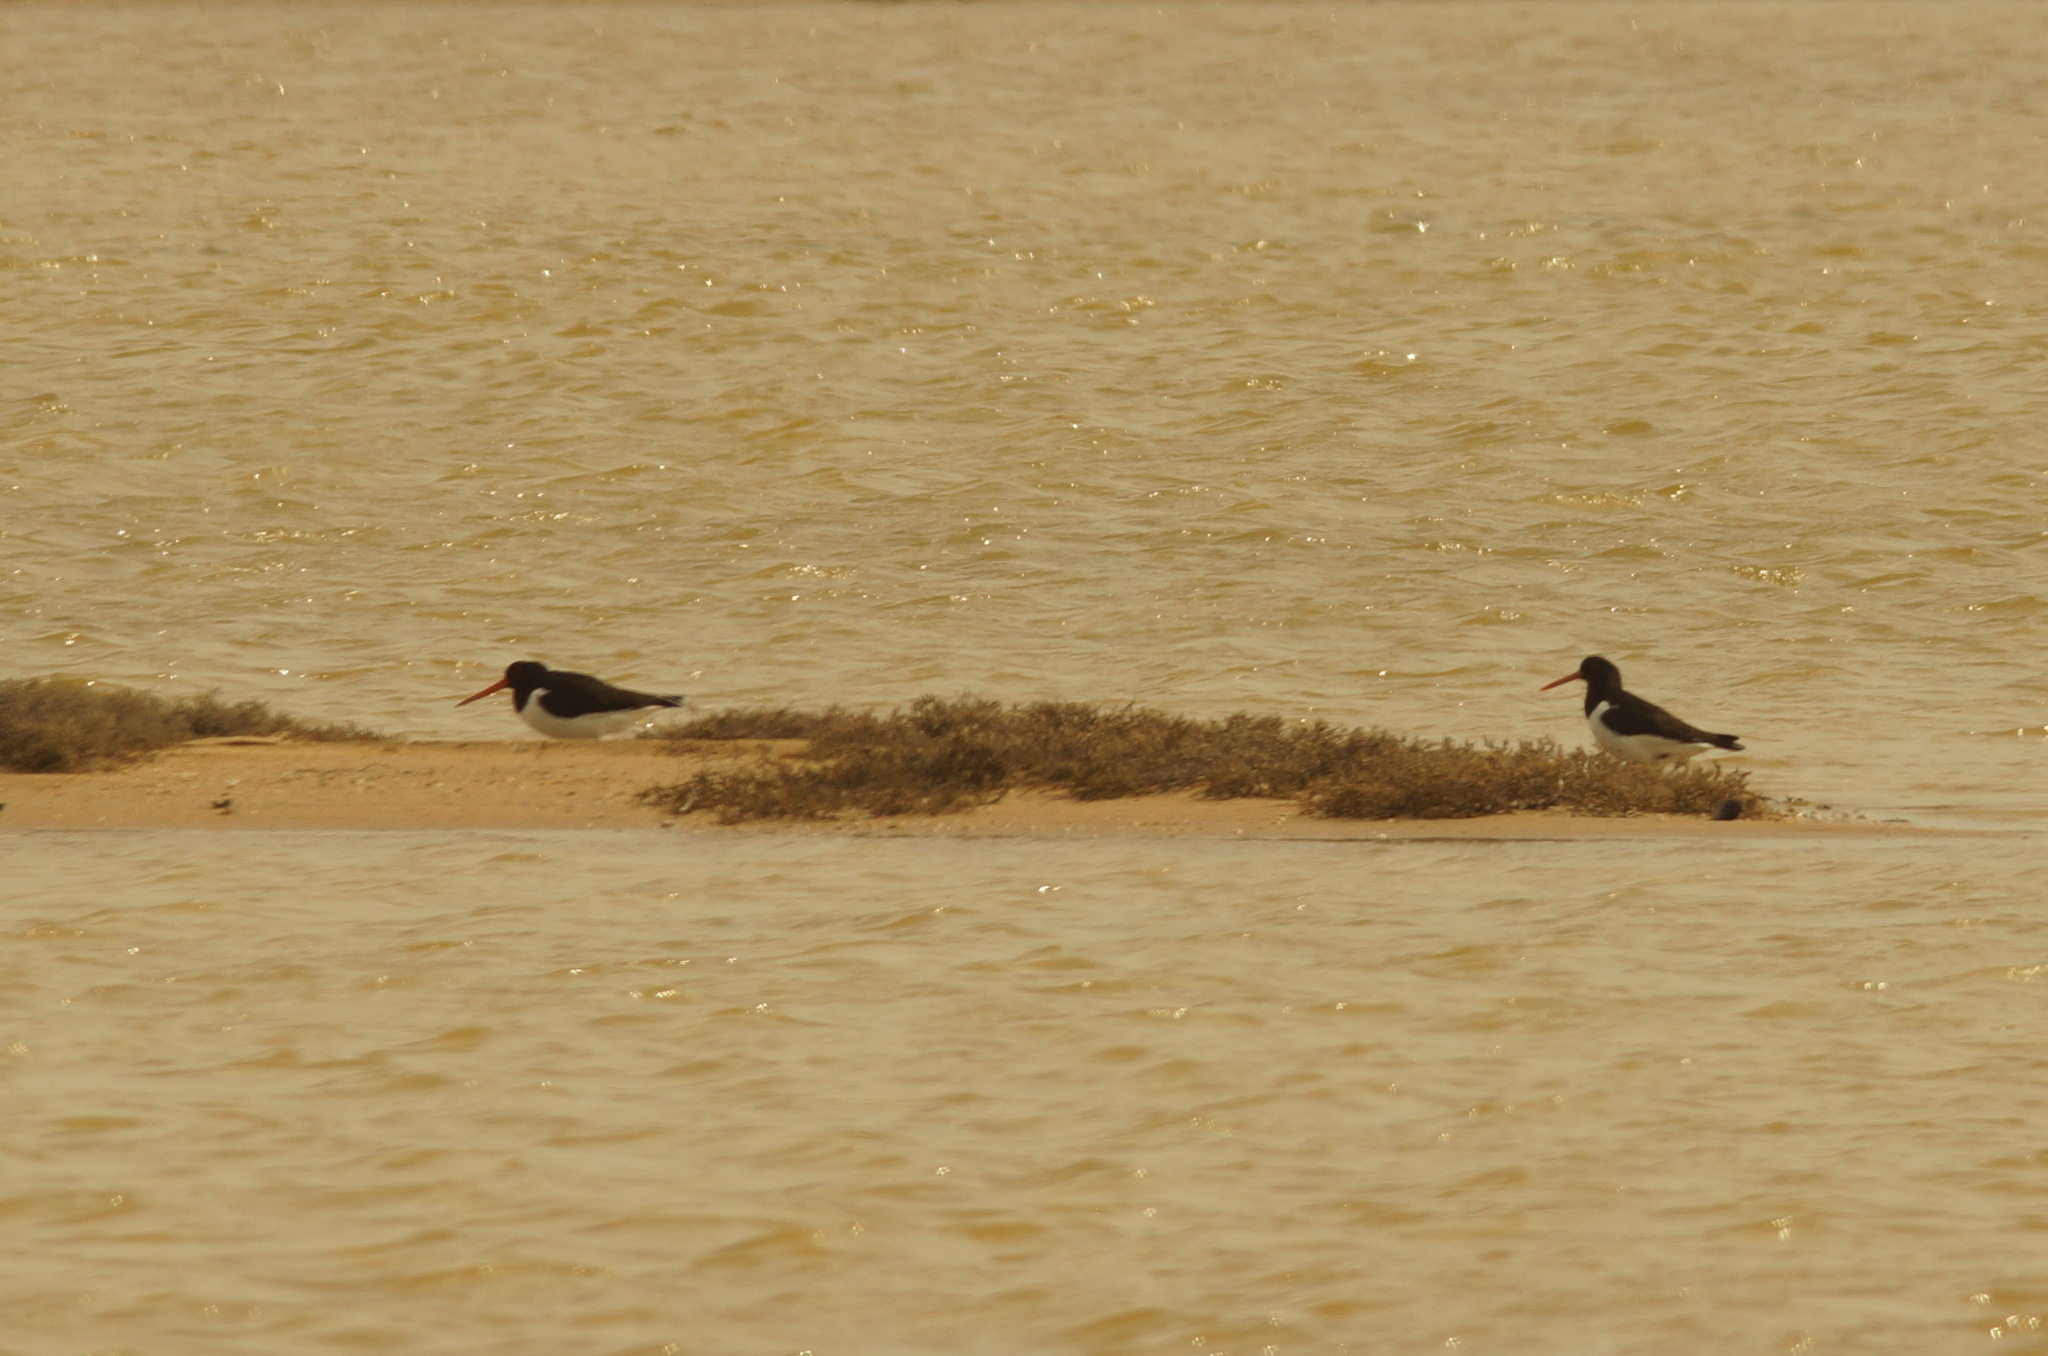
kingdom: Animalia
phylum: Chordata
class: Aves
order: Charadriiformes
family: Haematopodidae
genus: Haematopus
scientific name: Haematopus ostralegus
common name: Eurasian oystercatcher
